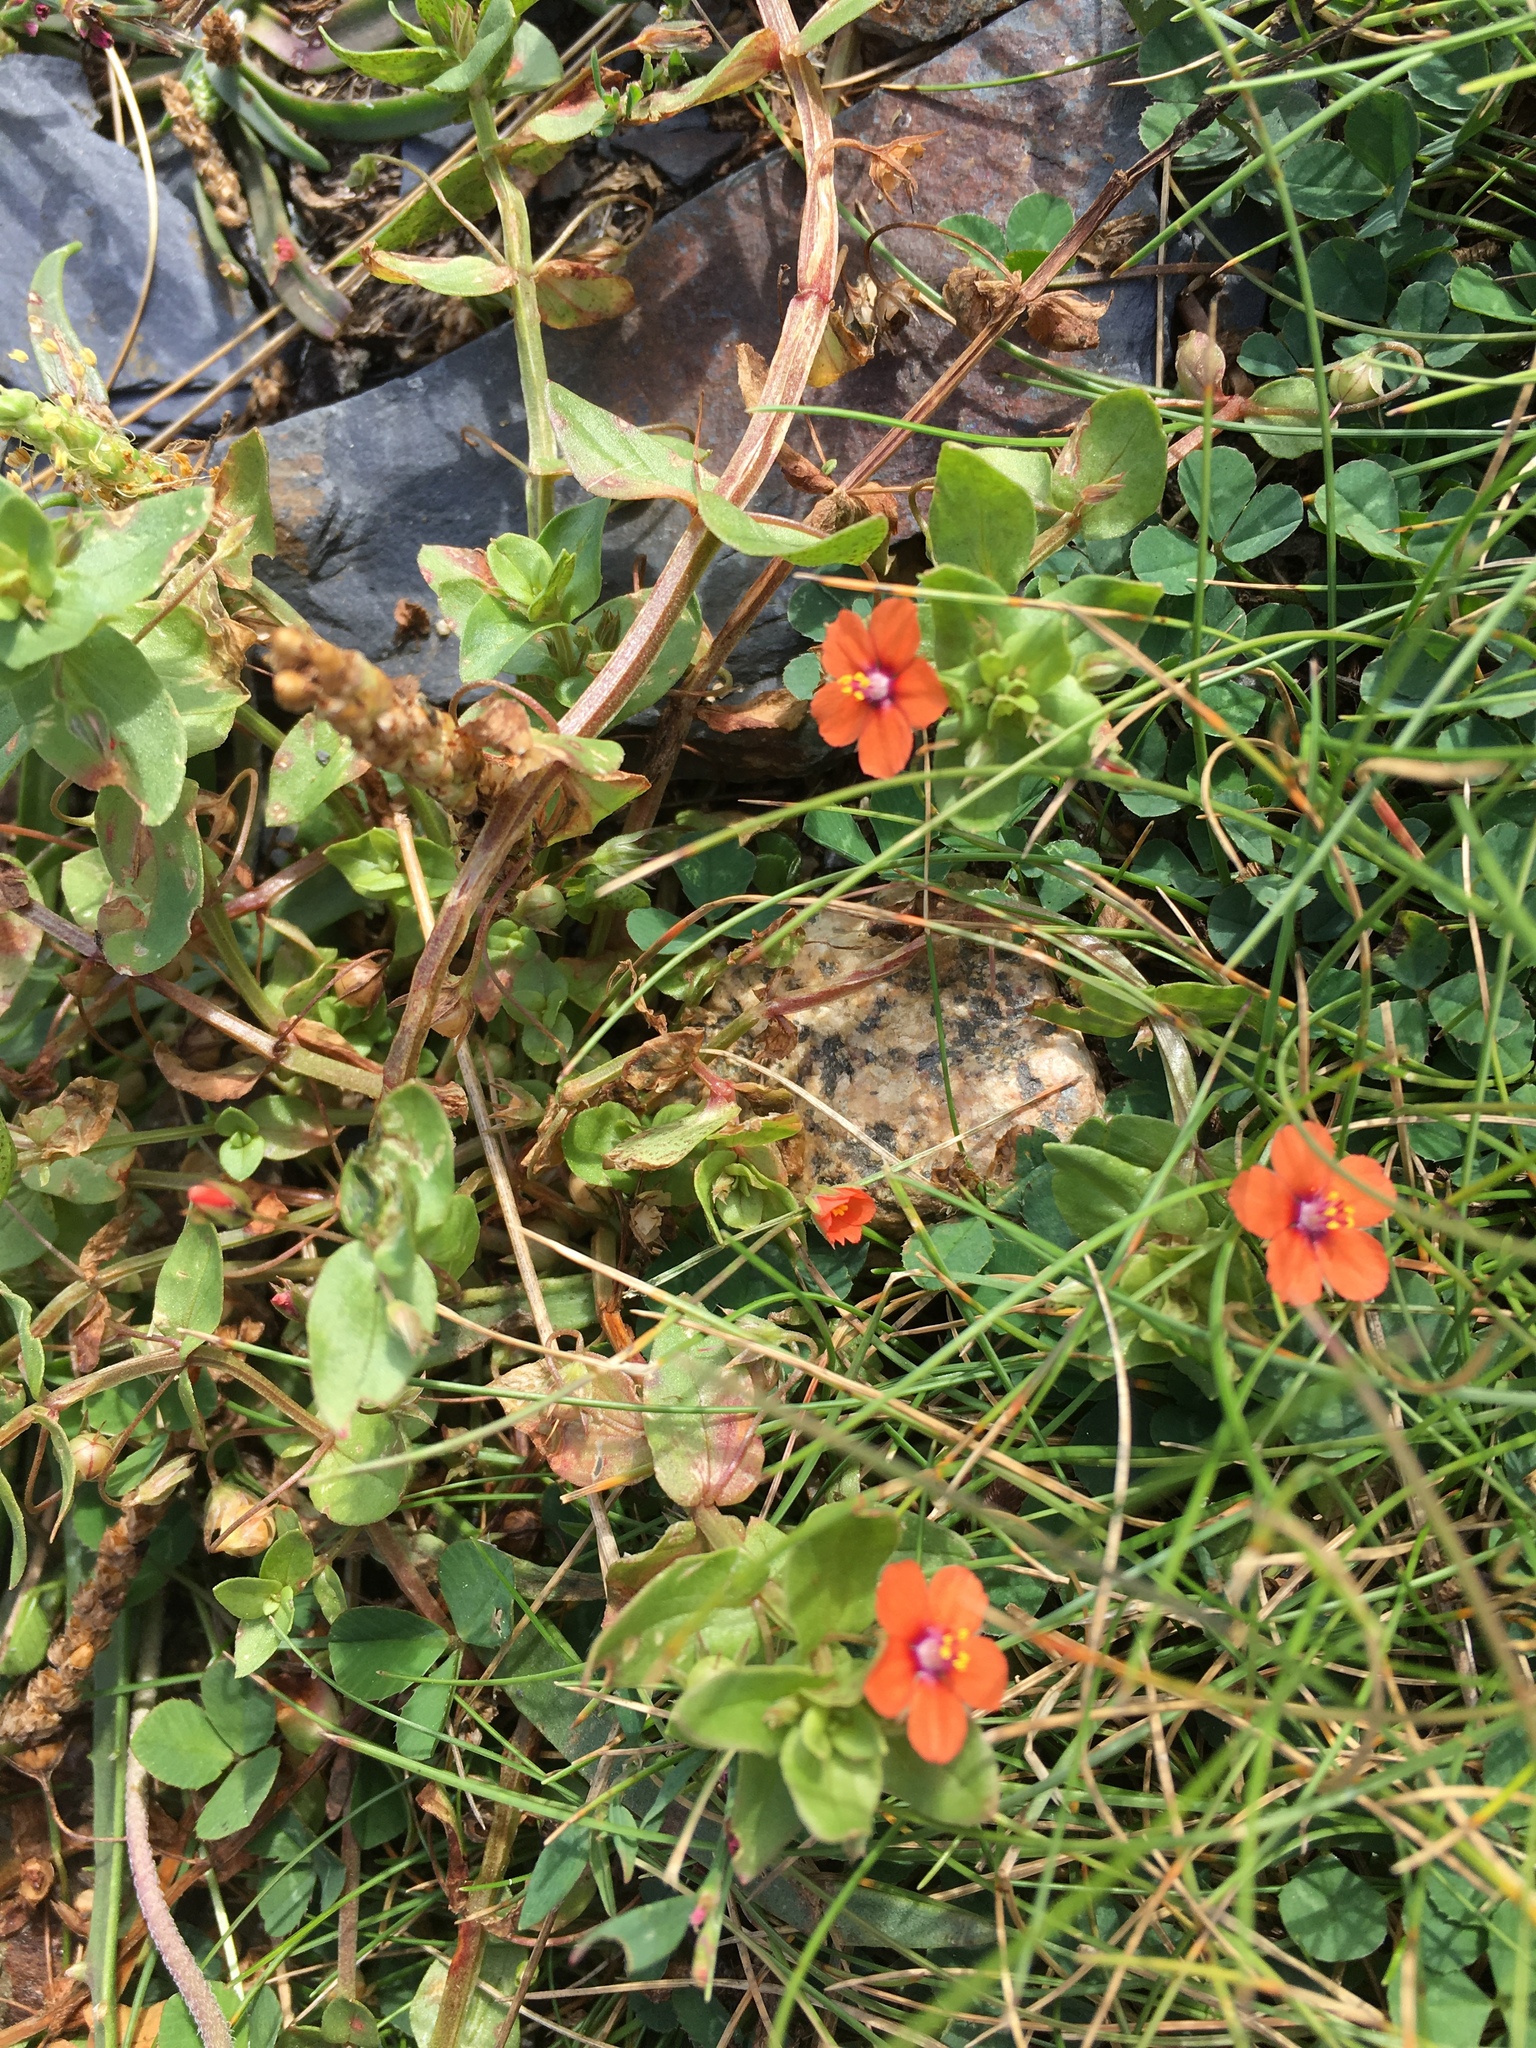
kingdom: Plantae
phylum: Tracheophyta
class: Magnoliopsida
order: Ericales
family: Primulaceae
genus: Lysimachia
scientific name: Lysimachia arvensis
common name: Scarlet pimpernel
